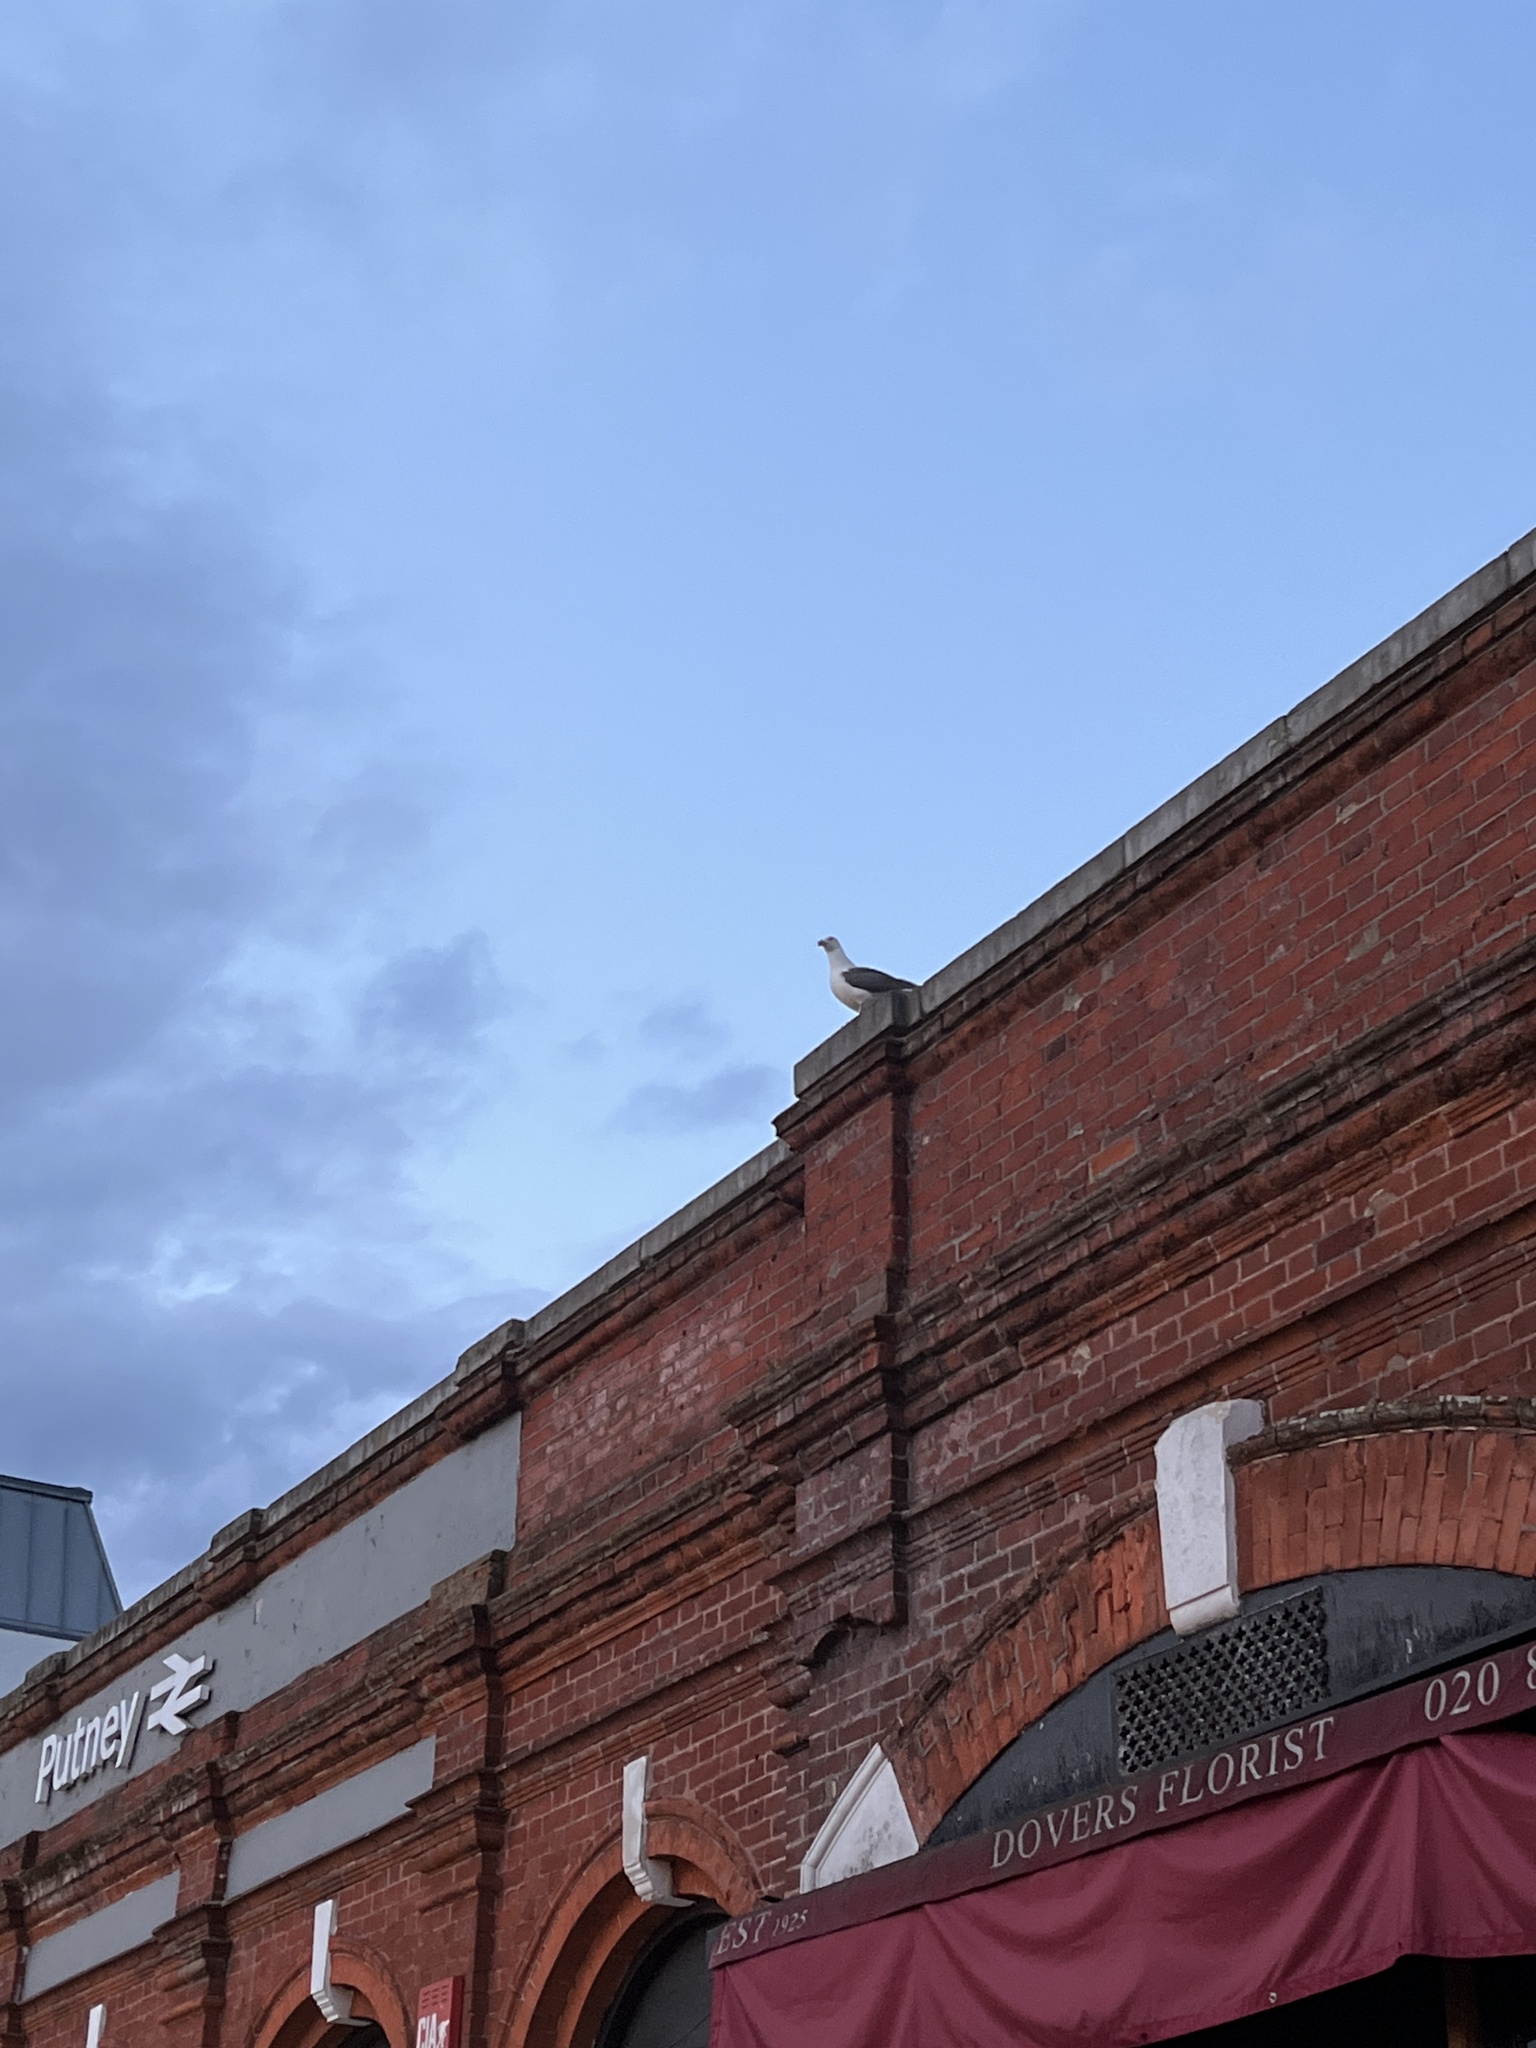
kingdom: Animalia
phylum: Chordata
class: Aves
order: Charadriiformes
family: Laridae
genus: Larus
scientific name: Larus marinus
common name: Great black-backed gull
